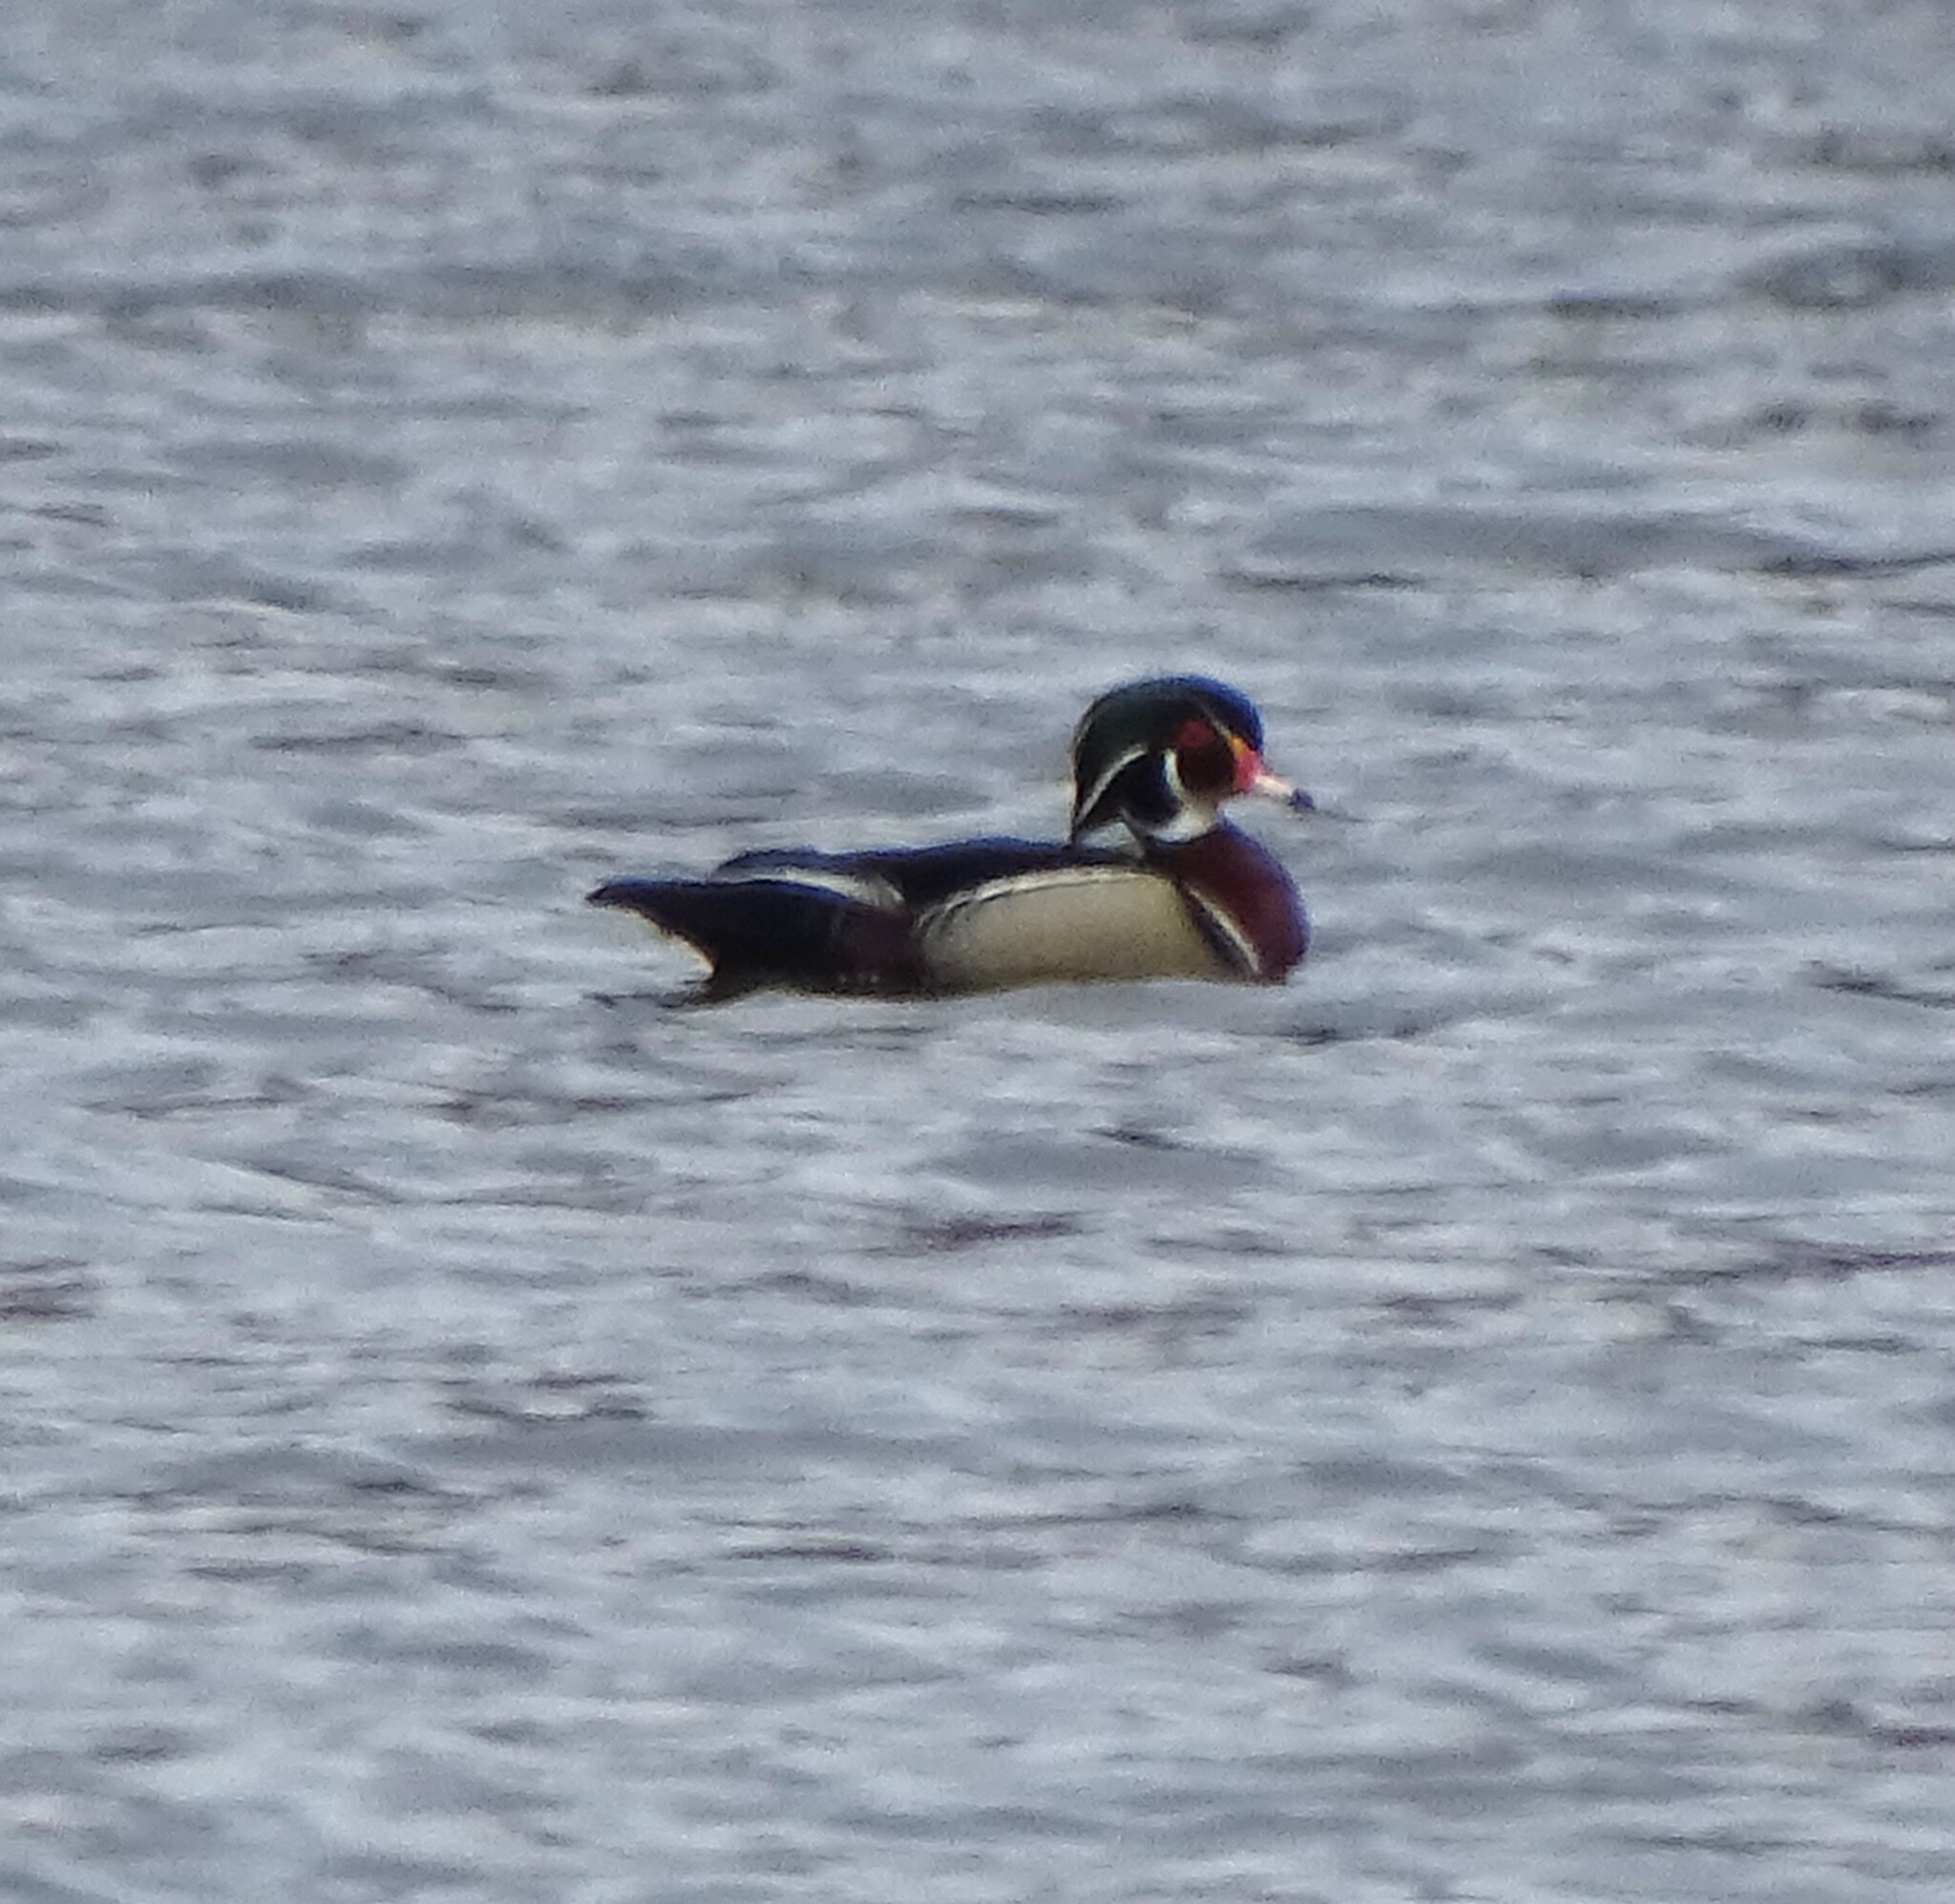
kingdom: Animalia
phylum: Chordata
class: Aves
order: Anseriformes
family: Anatidae
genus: Aix
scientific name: Aix sponsa
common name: Wood duck
